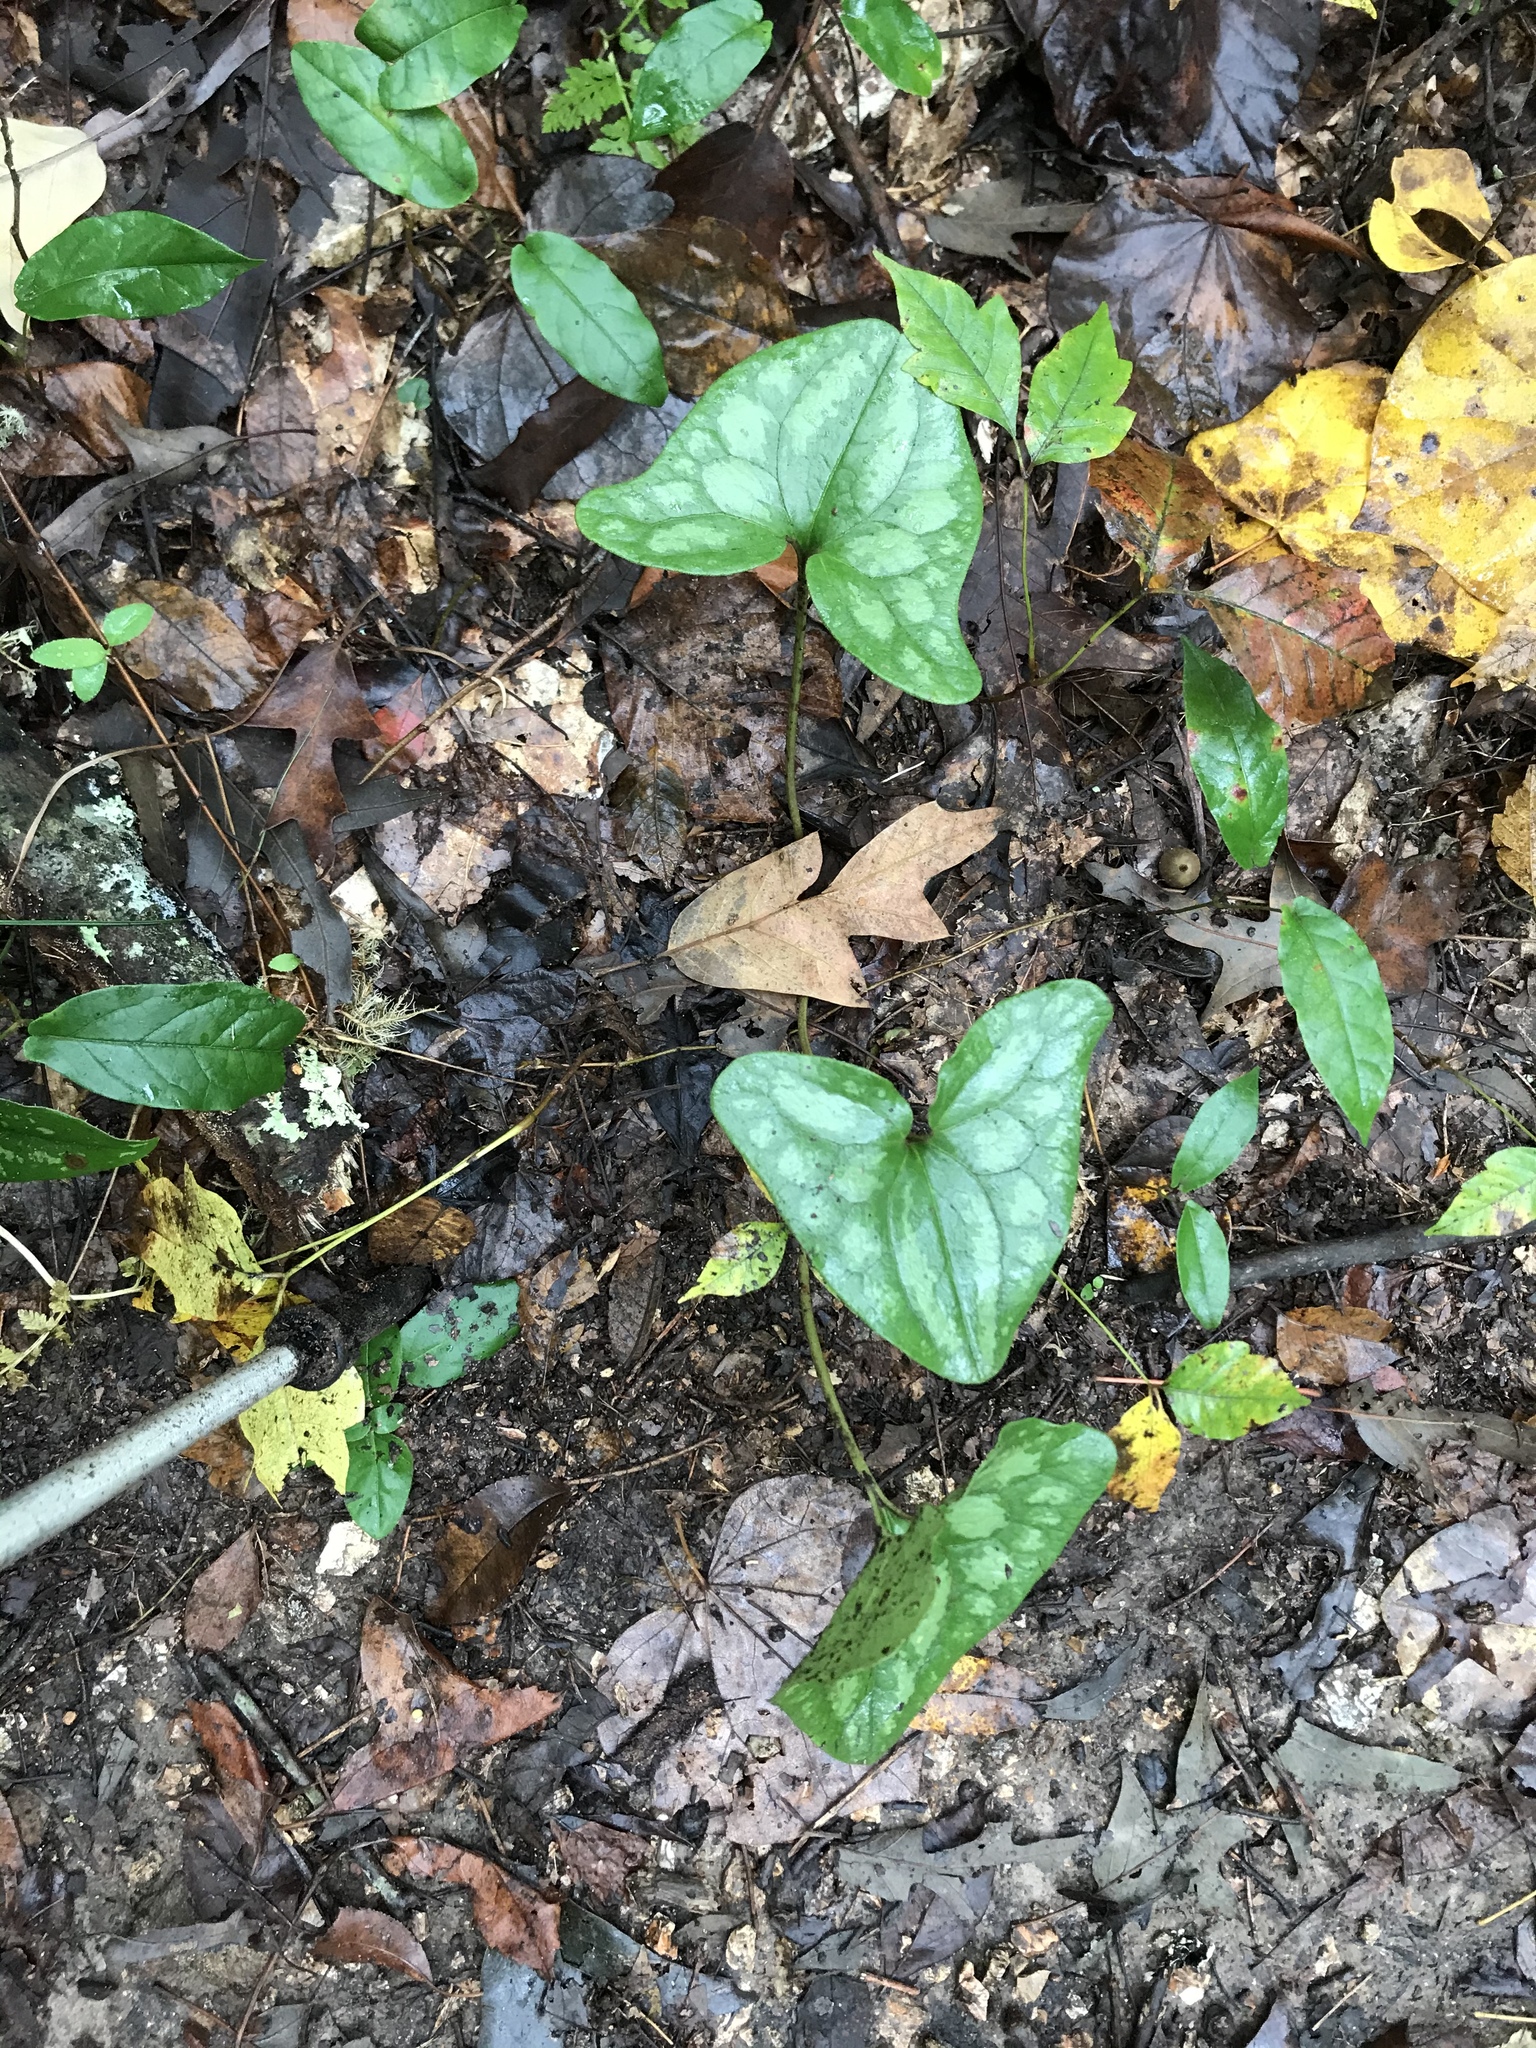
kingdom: Plantae
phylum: Tracheophyta
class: Magnoliopsida
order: Piperales
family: Aristolochiaceae
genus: Hexastylis
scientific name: Hexastylis arifolia
